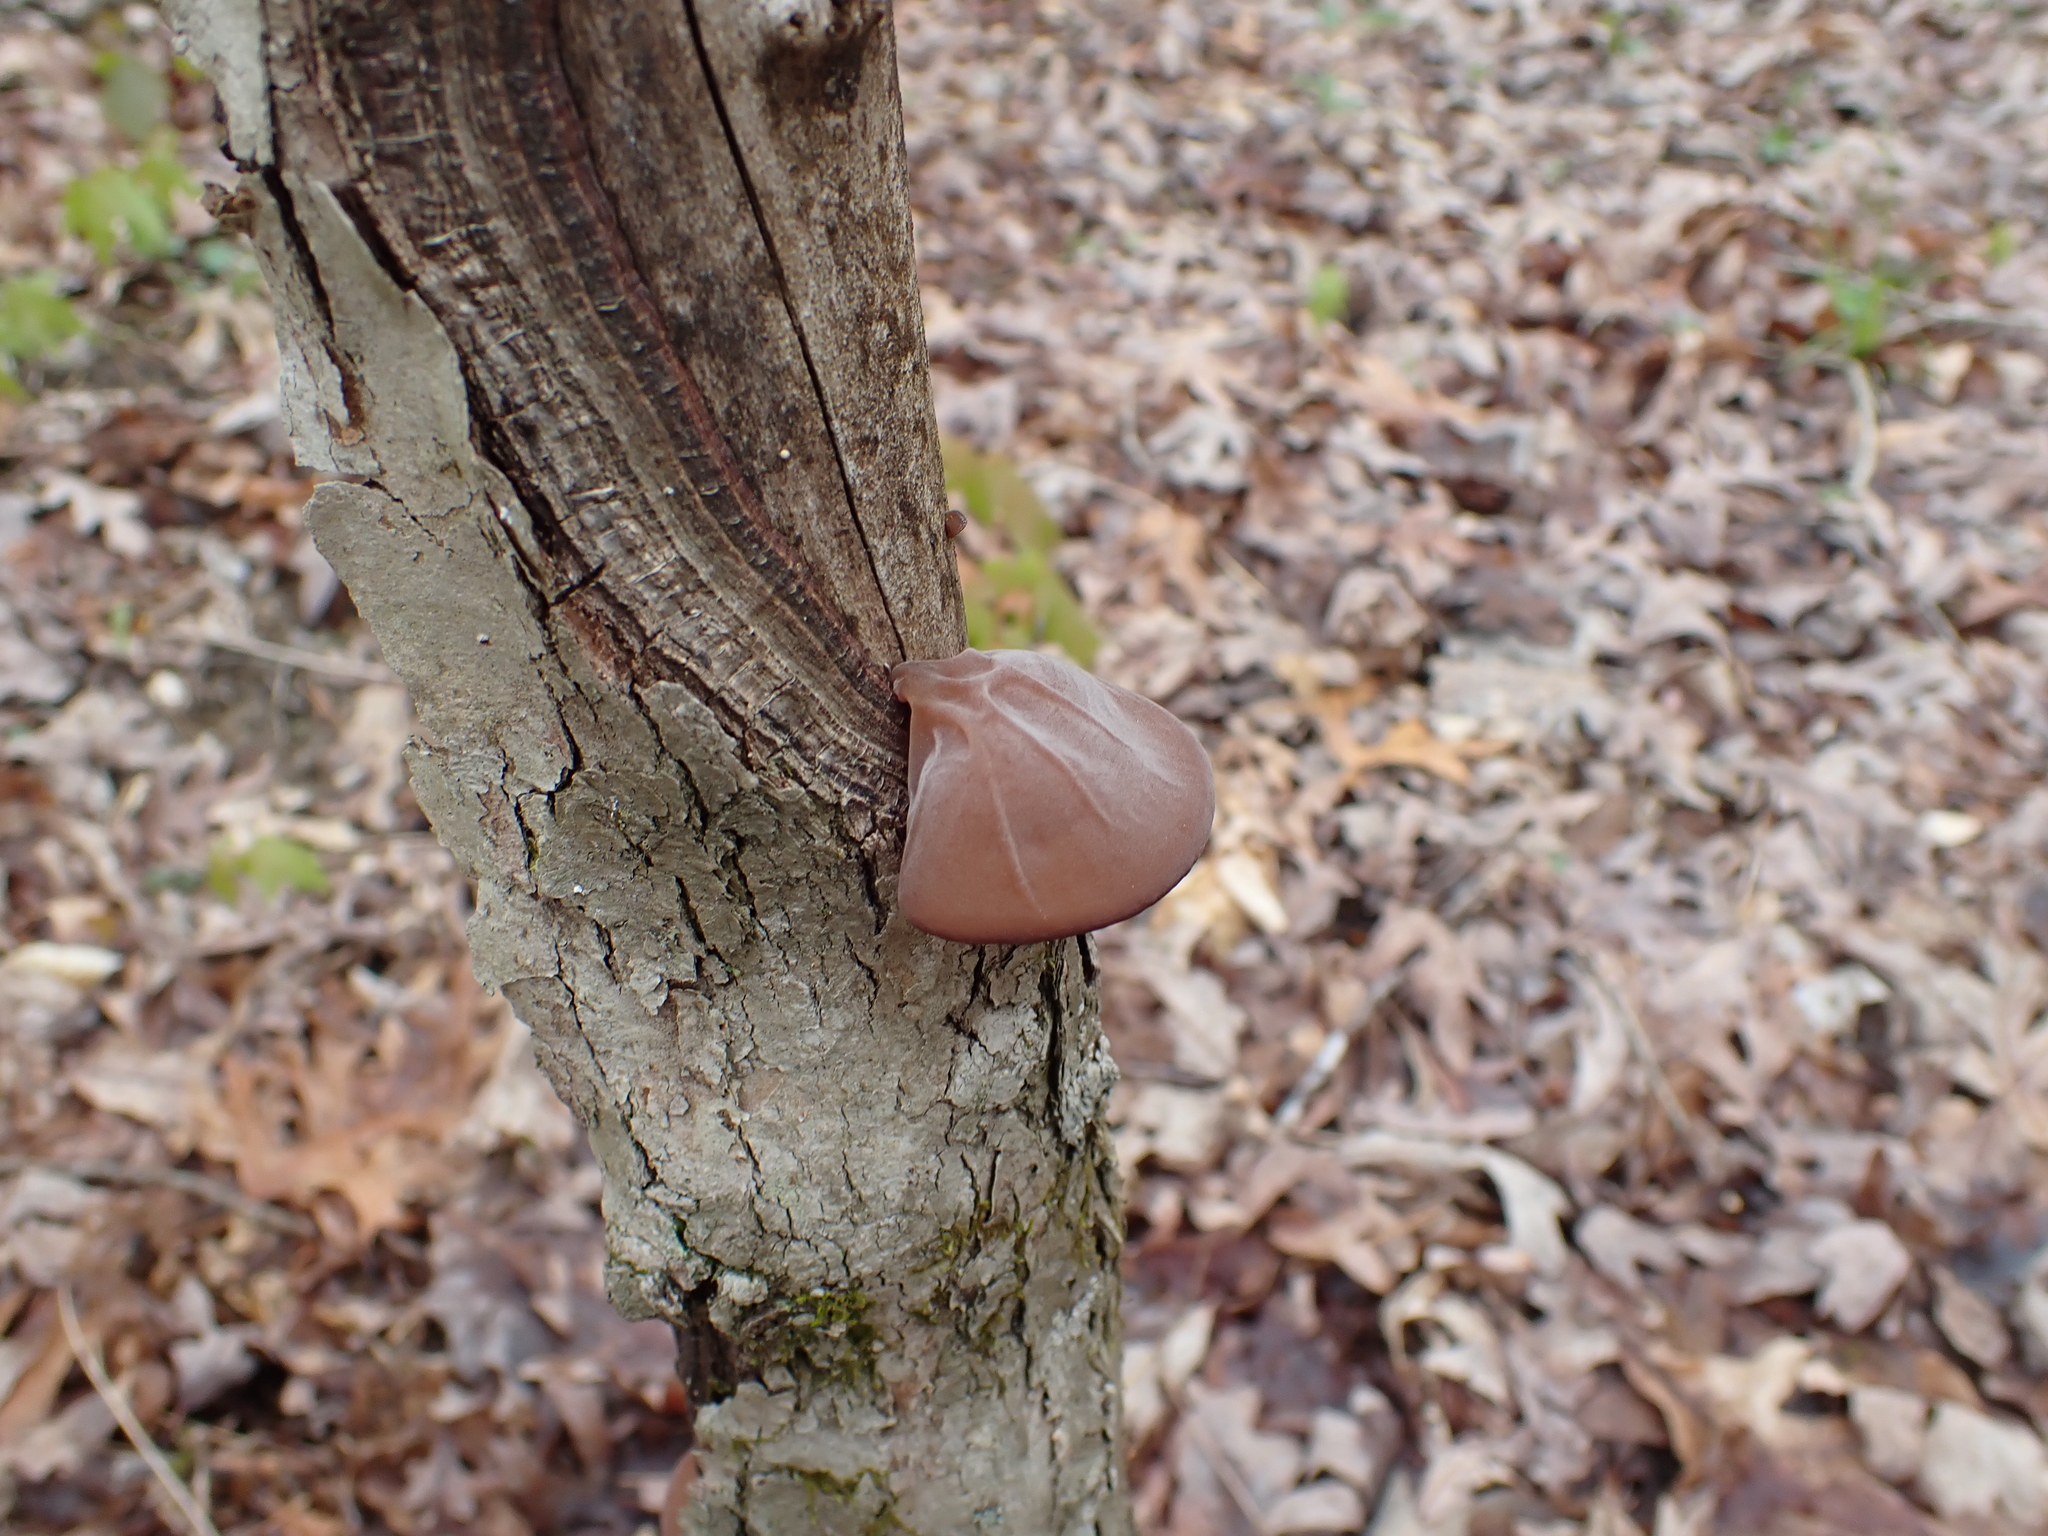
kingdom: Fungi
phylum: Basidiomycota
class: Agaricomycetes
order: Auriculariales
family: Auriculariaceae
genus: Auricularia
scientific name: Auricularia angiospermarum
